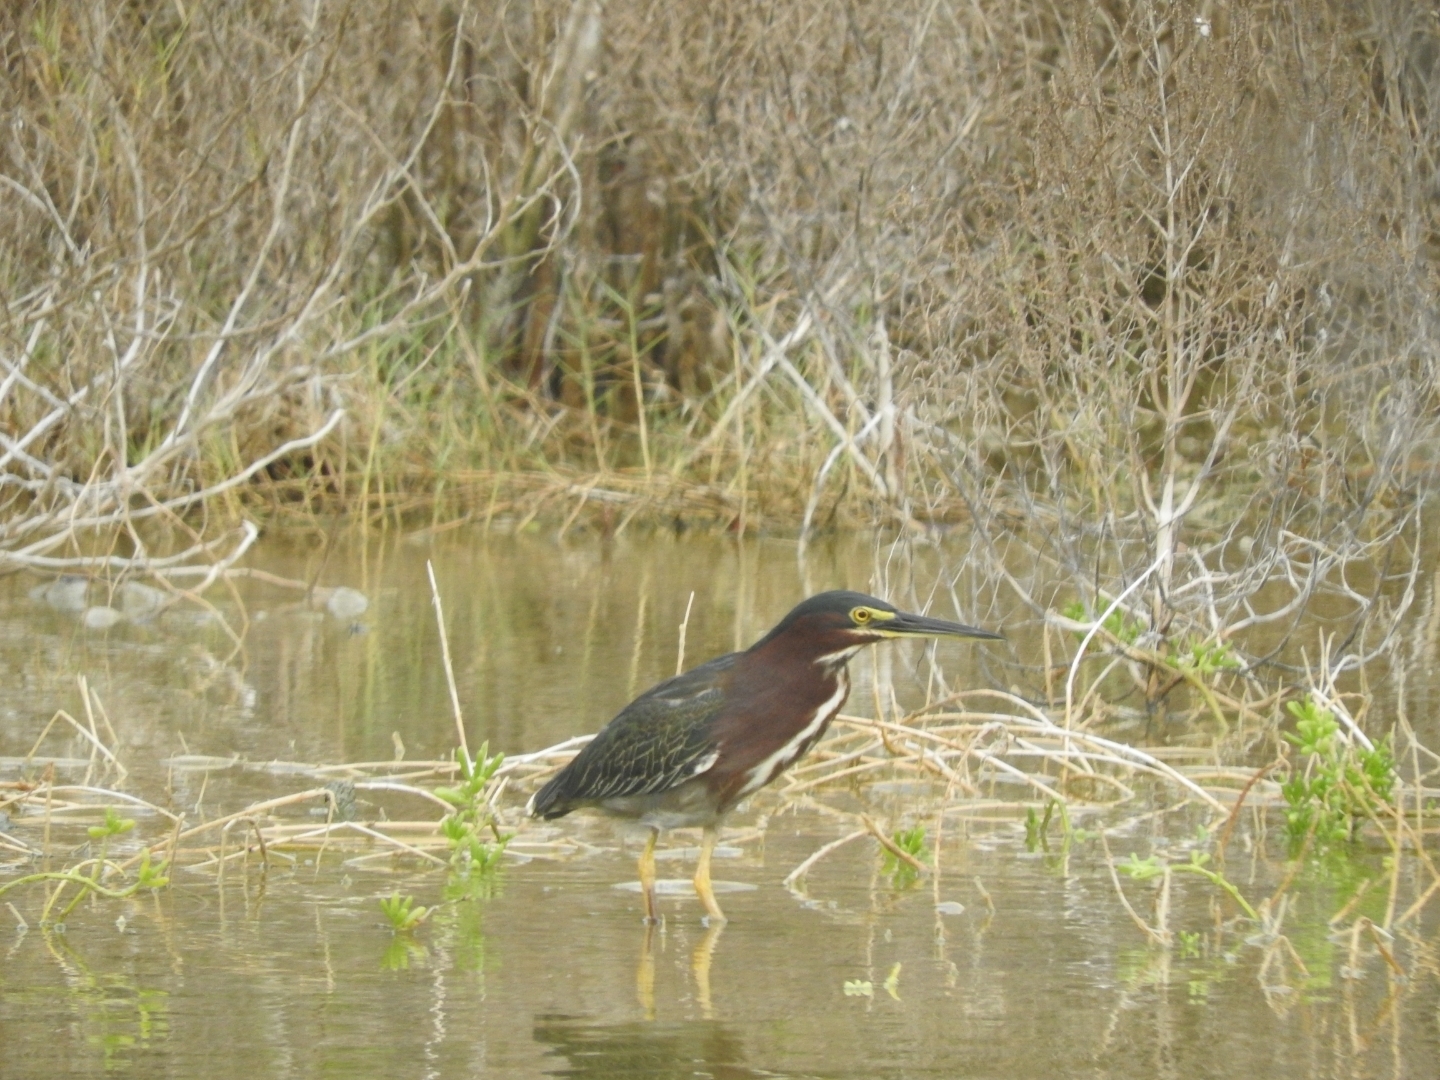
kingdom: Animalia
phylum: Chordata
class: Aves
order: Pelecaniformes
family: Ardeidae
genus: Butorides
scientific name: Butorides virescens
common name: Green heron
